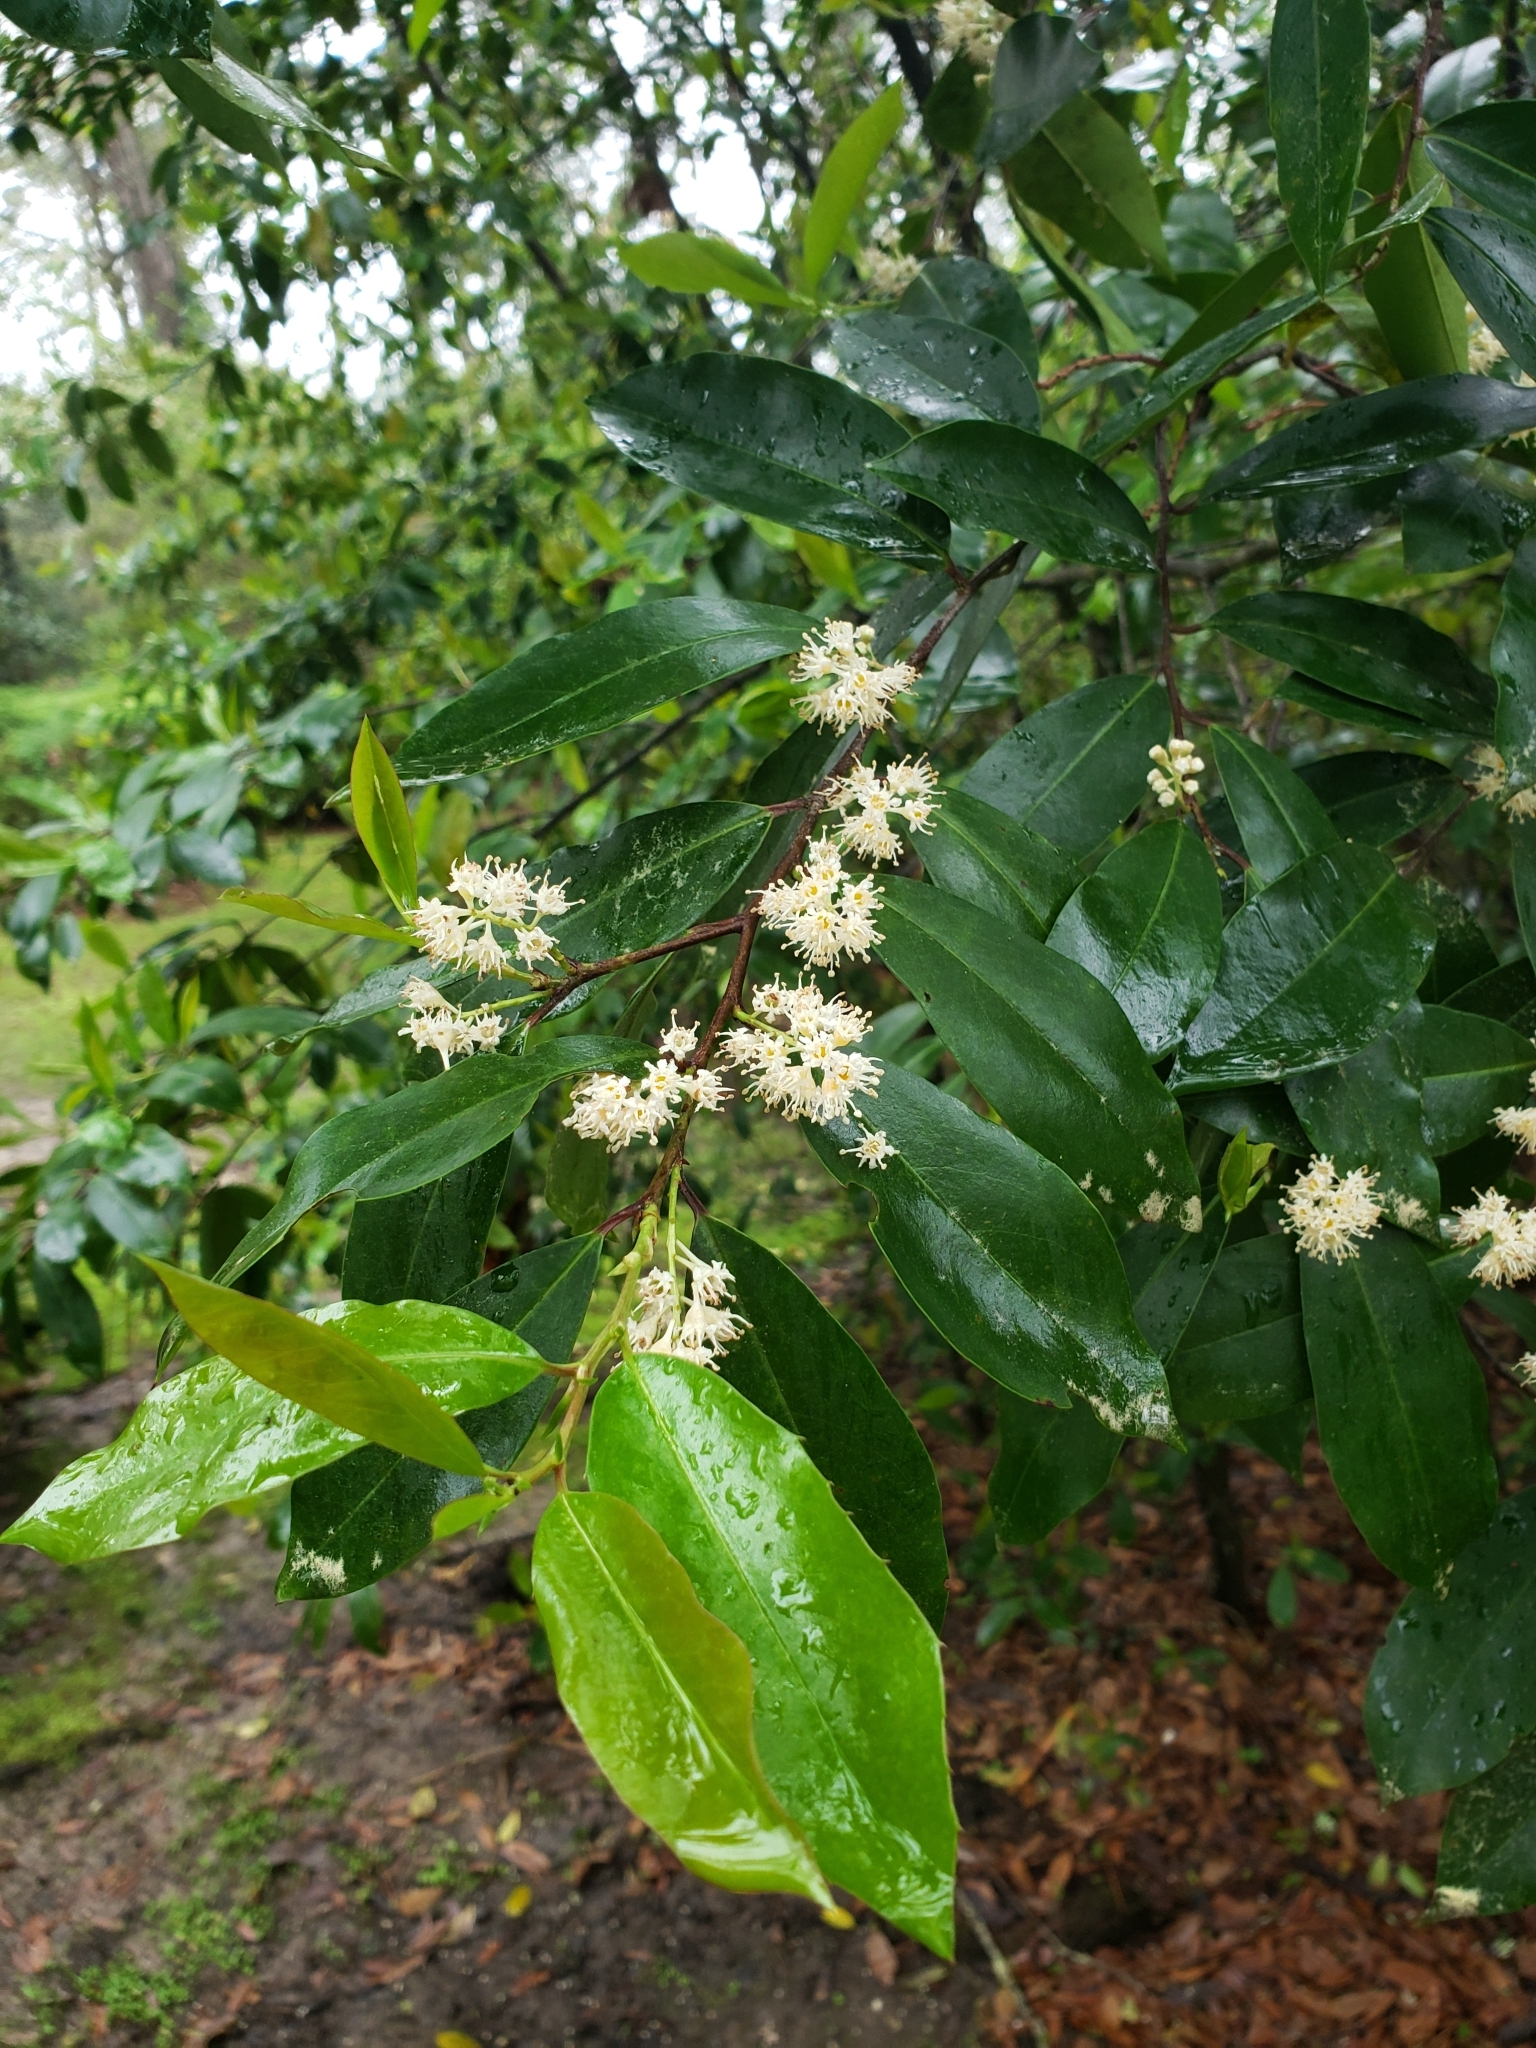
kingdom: Plantae
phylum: Tracheophyta
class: Magnoliopsida
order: Rosales
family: Rosaceae
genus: Prunus
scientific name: Prunus caroliniana
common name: Carolina laurel cherry
